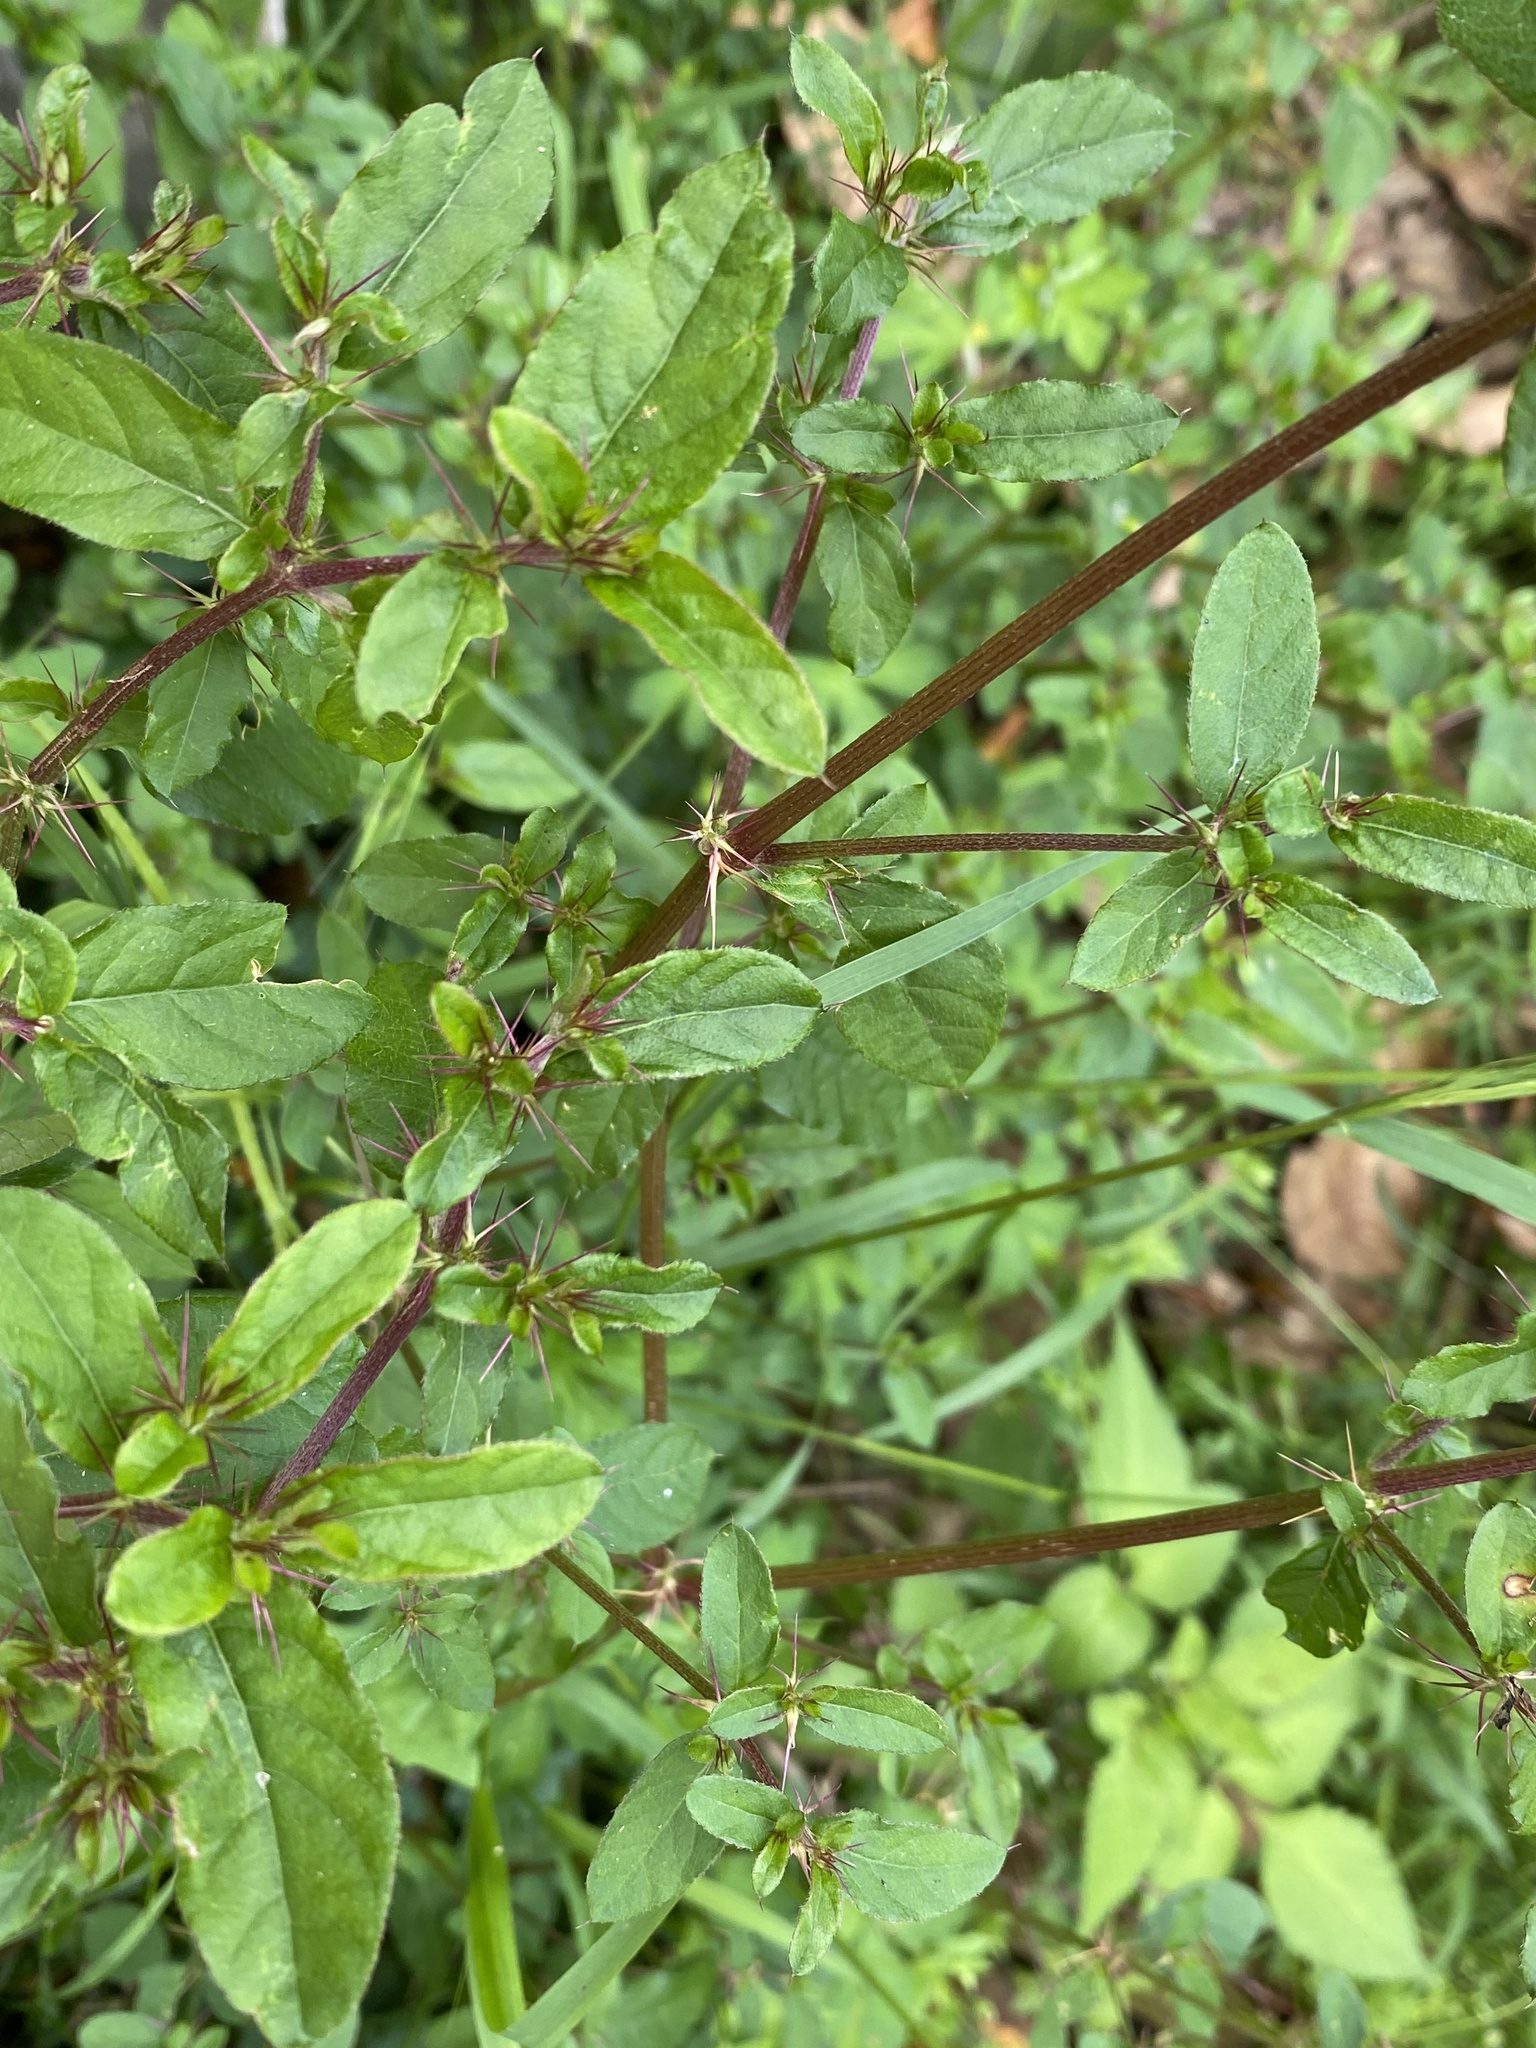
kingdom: Plantae
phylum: Tracheophyta
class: Magnoliopsida
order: Caryophyllales
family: Amaranthaceae
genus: Nyssanthes
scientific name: Nyssanthes diffusa
